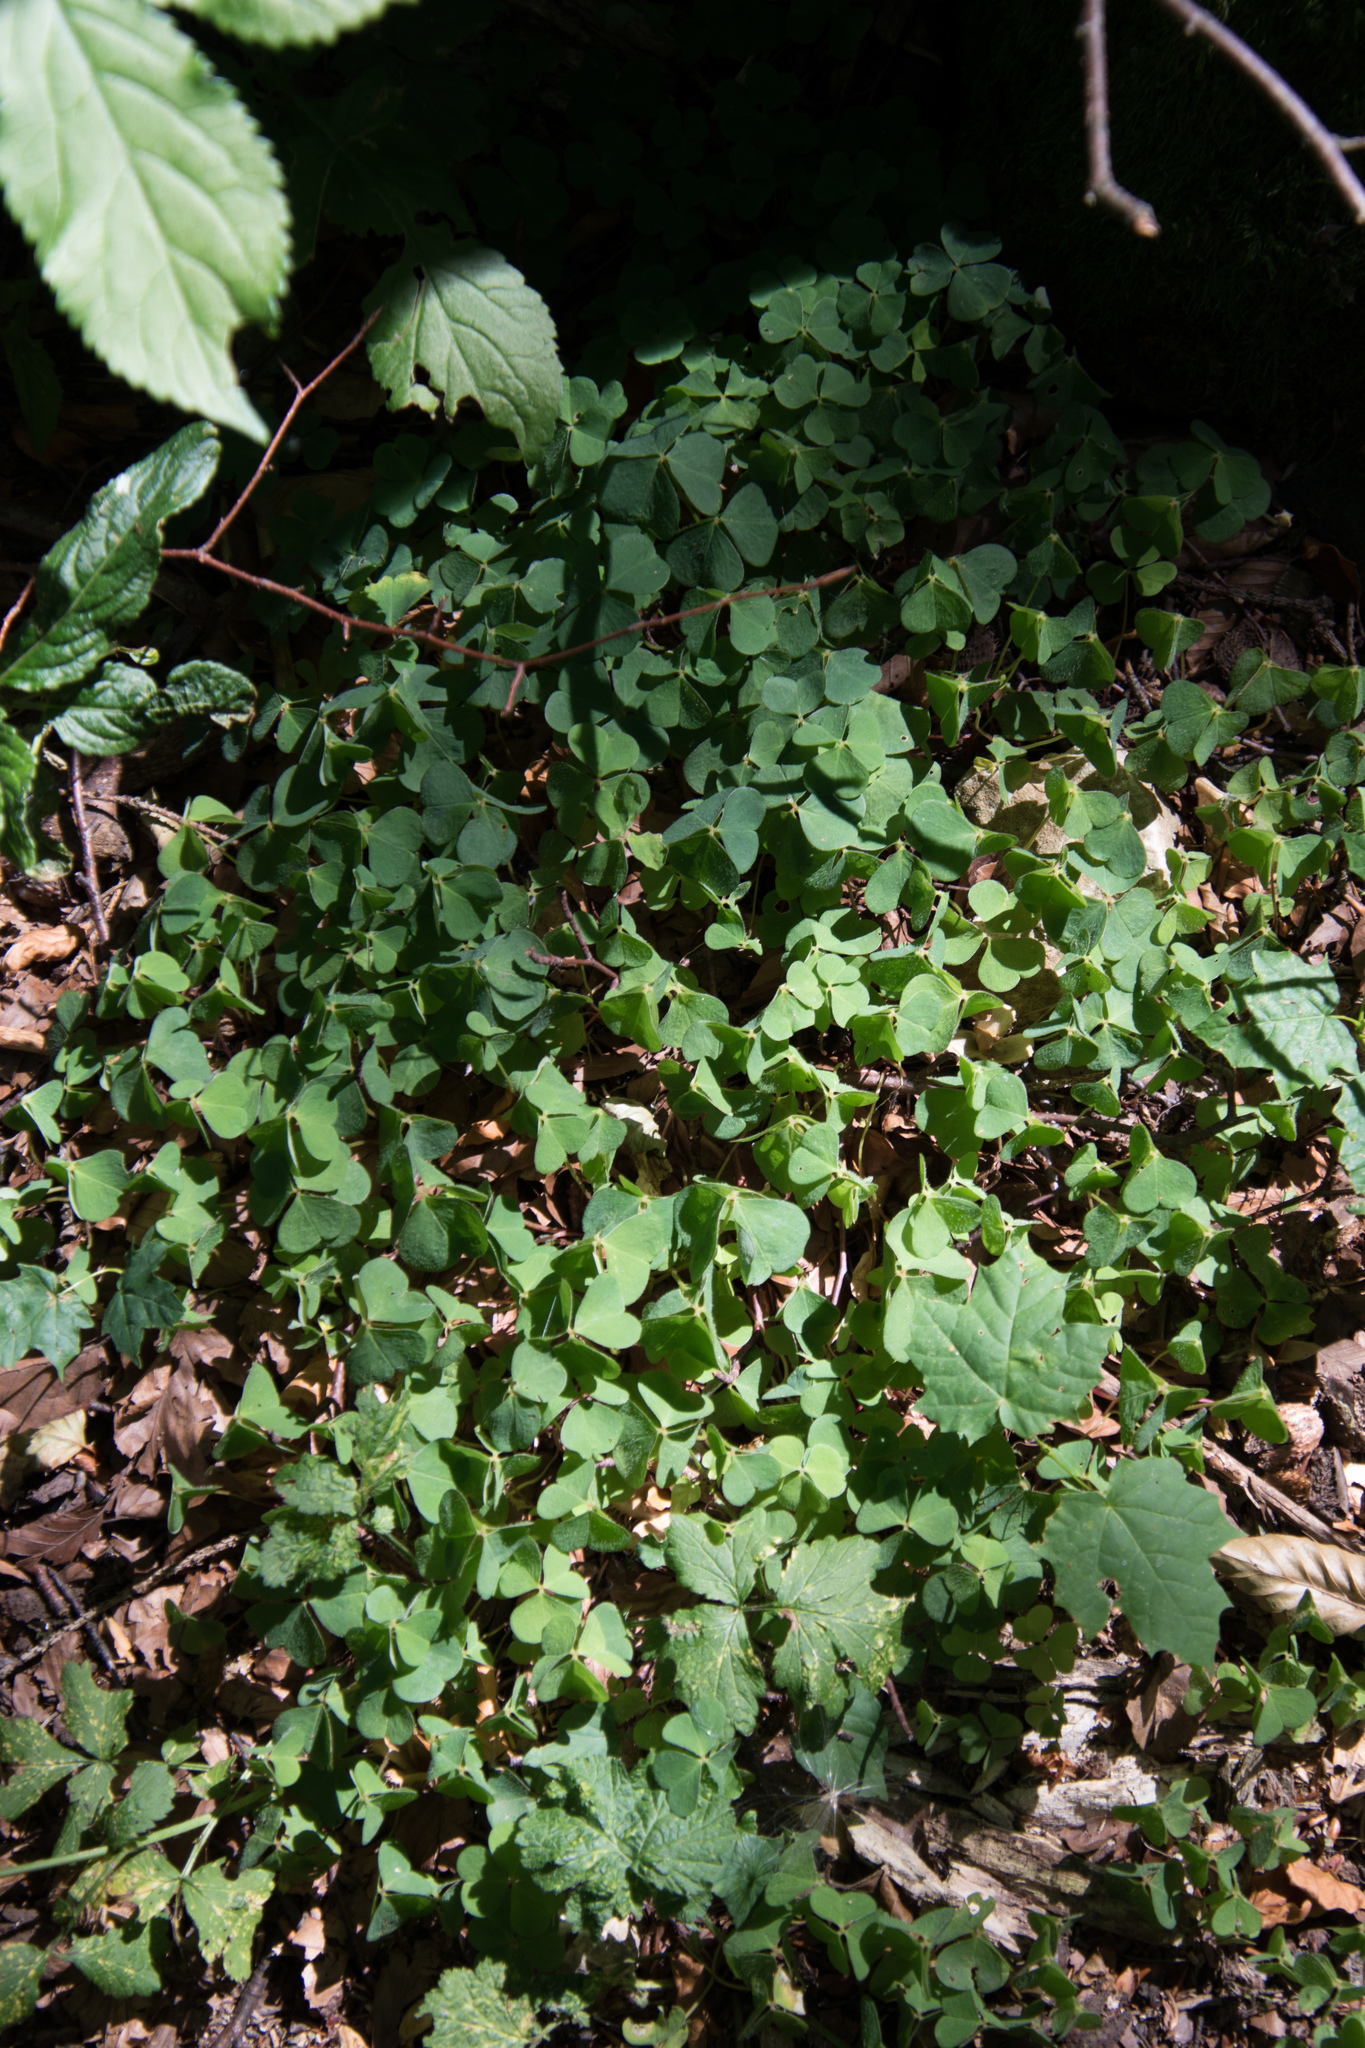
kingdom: Plantae
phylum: Tracheophyta
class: Magnoliopsida
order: Oxalidales
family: Oxalidaceae
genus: Oxalis
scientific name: Oxalis acetosella
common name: Wood-sorrel
